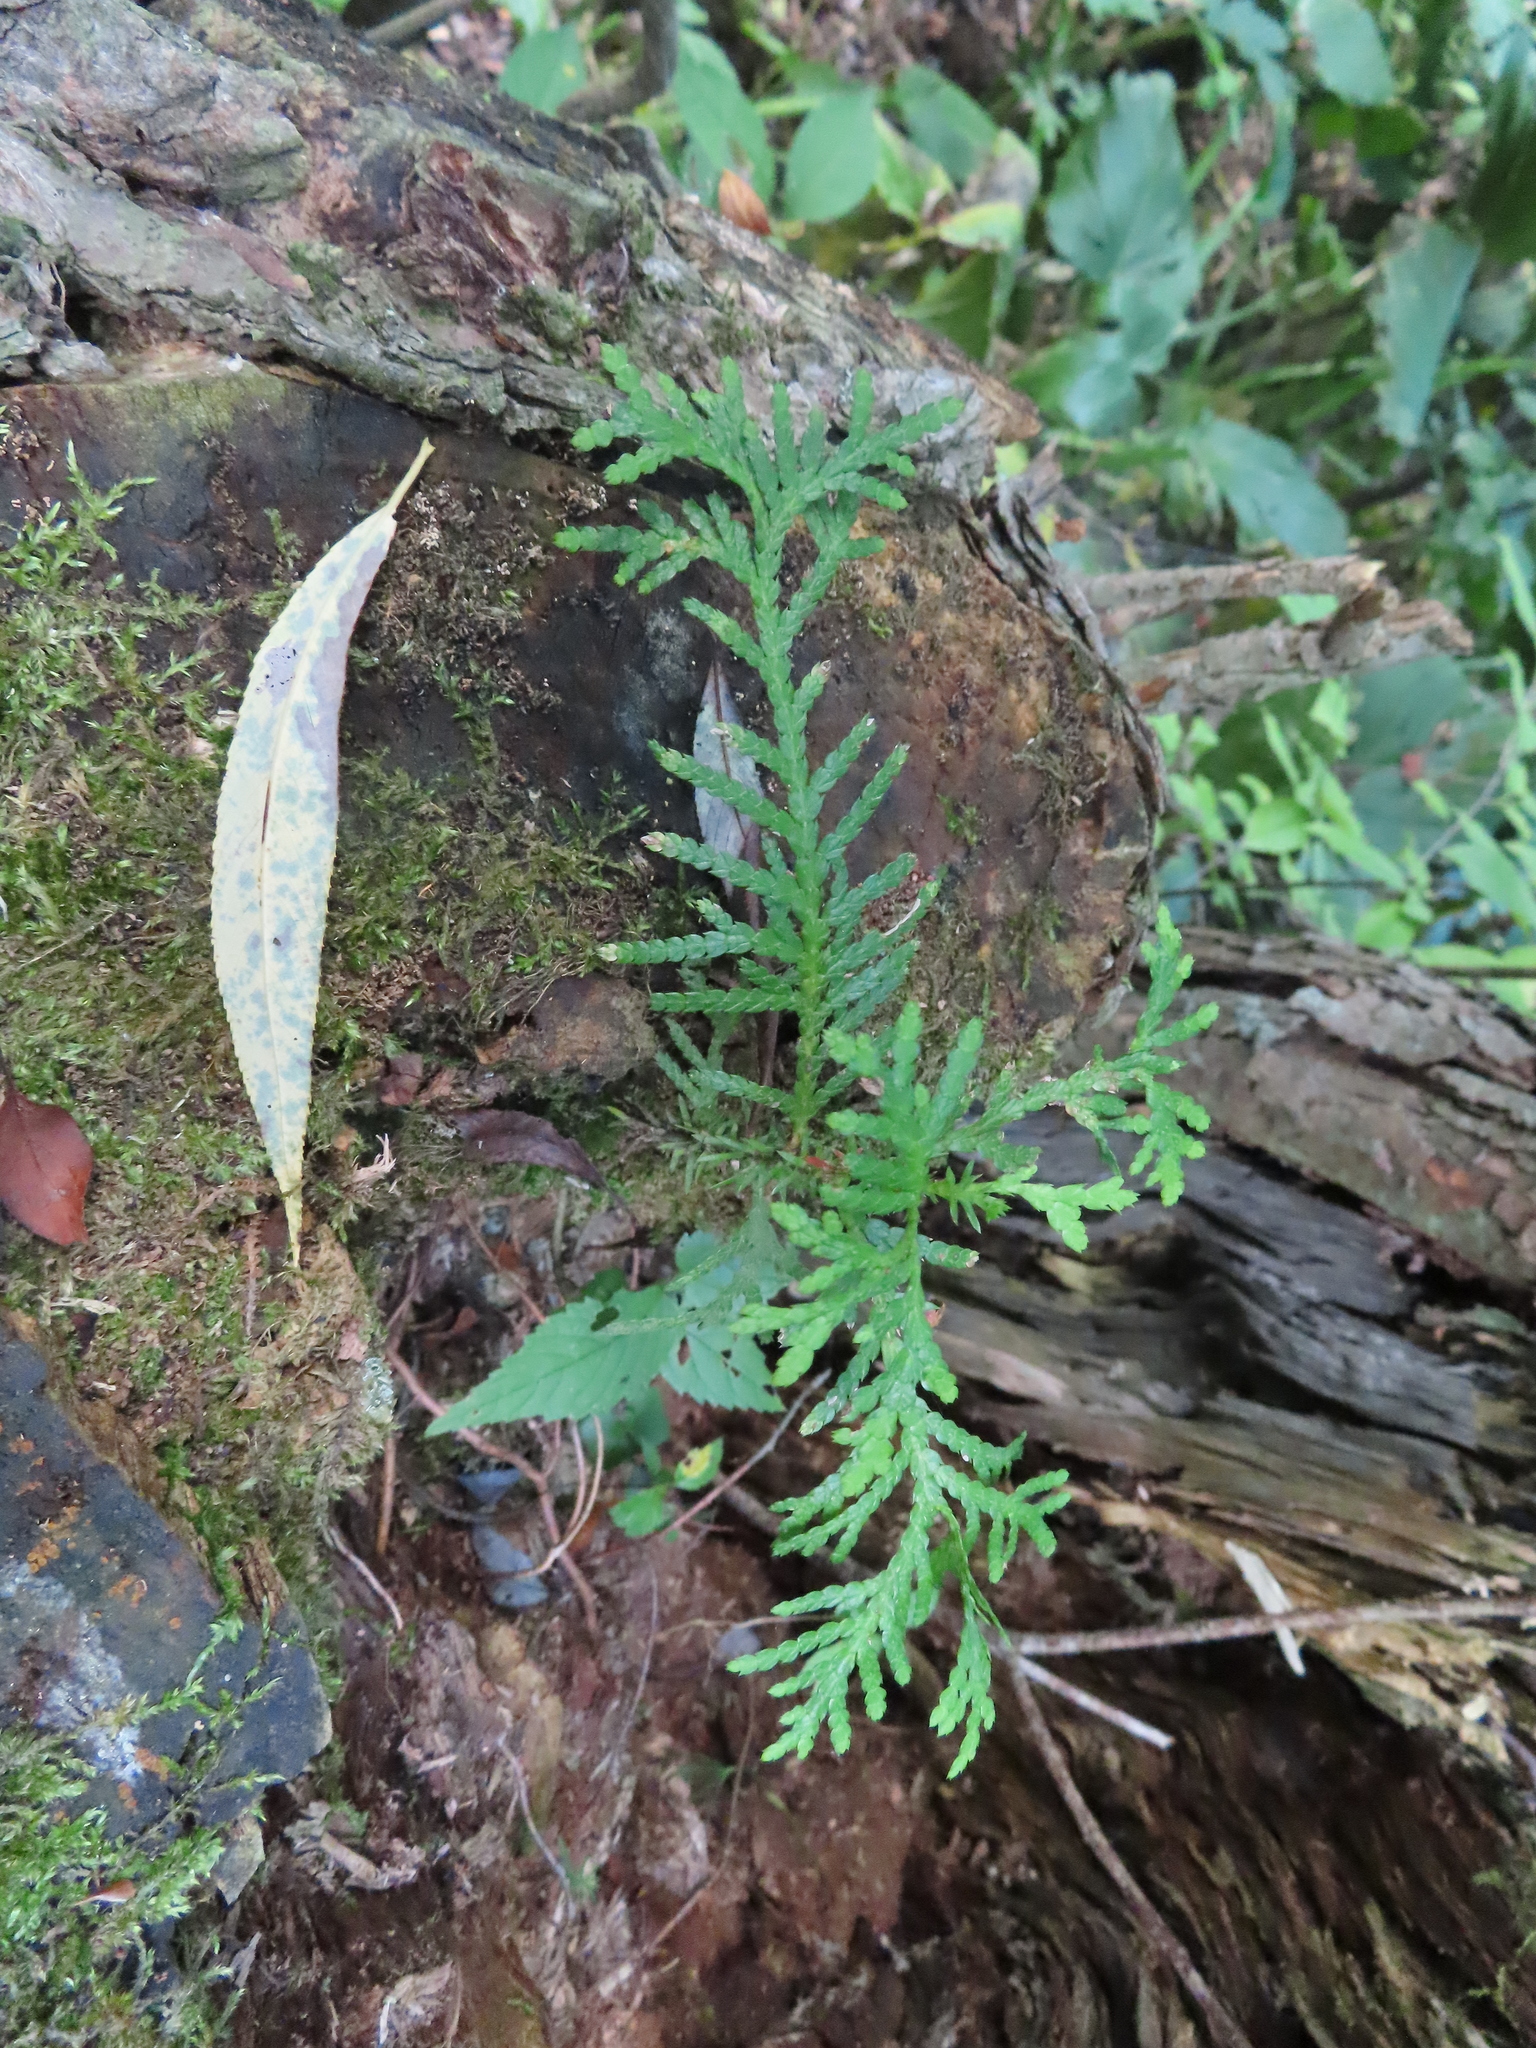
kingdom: Plantae
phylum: Tracheophyta
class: Pinopsida
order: Pinales
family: Cupressaceae
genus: Thuja
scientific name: Thuja occidentalis
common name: Northern white-cedar
